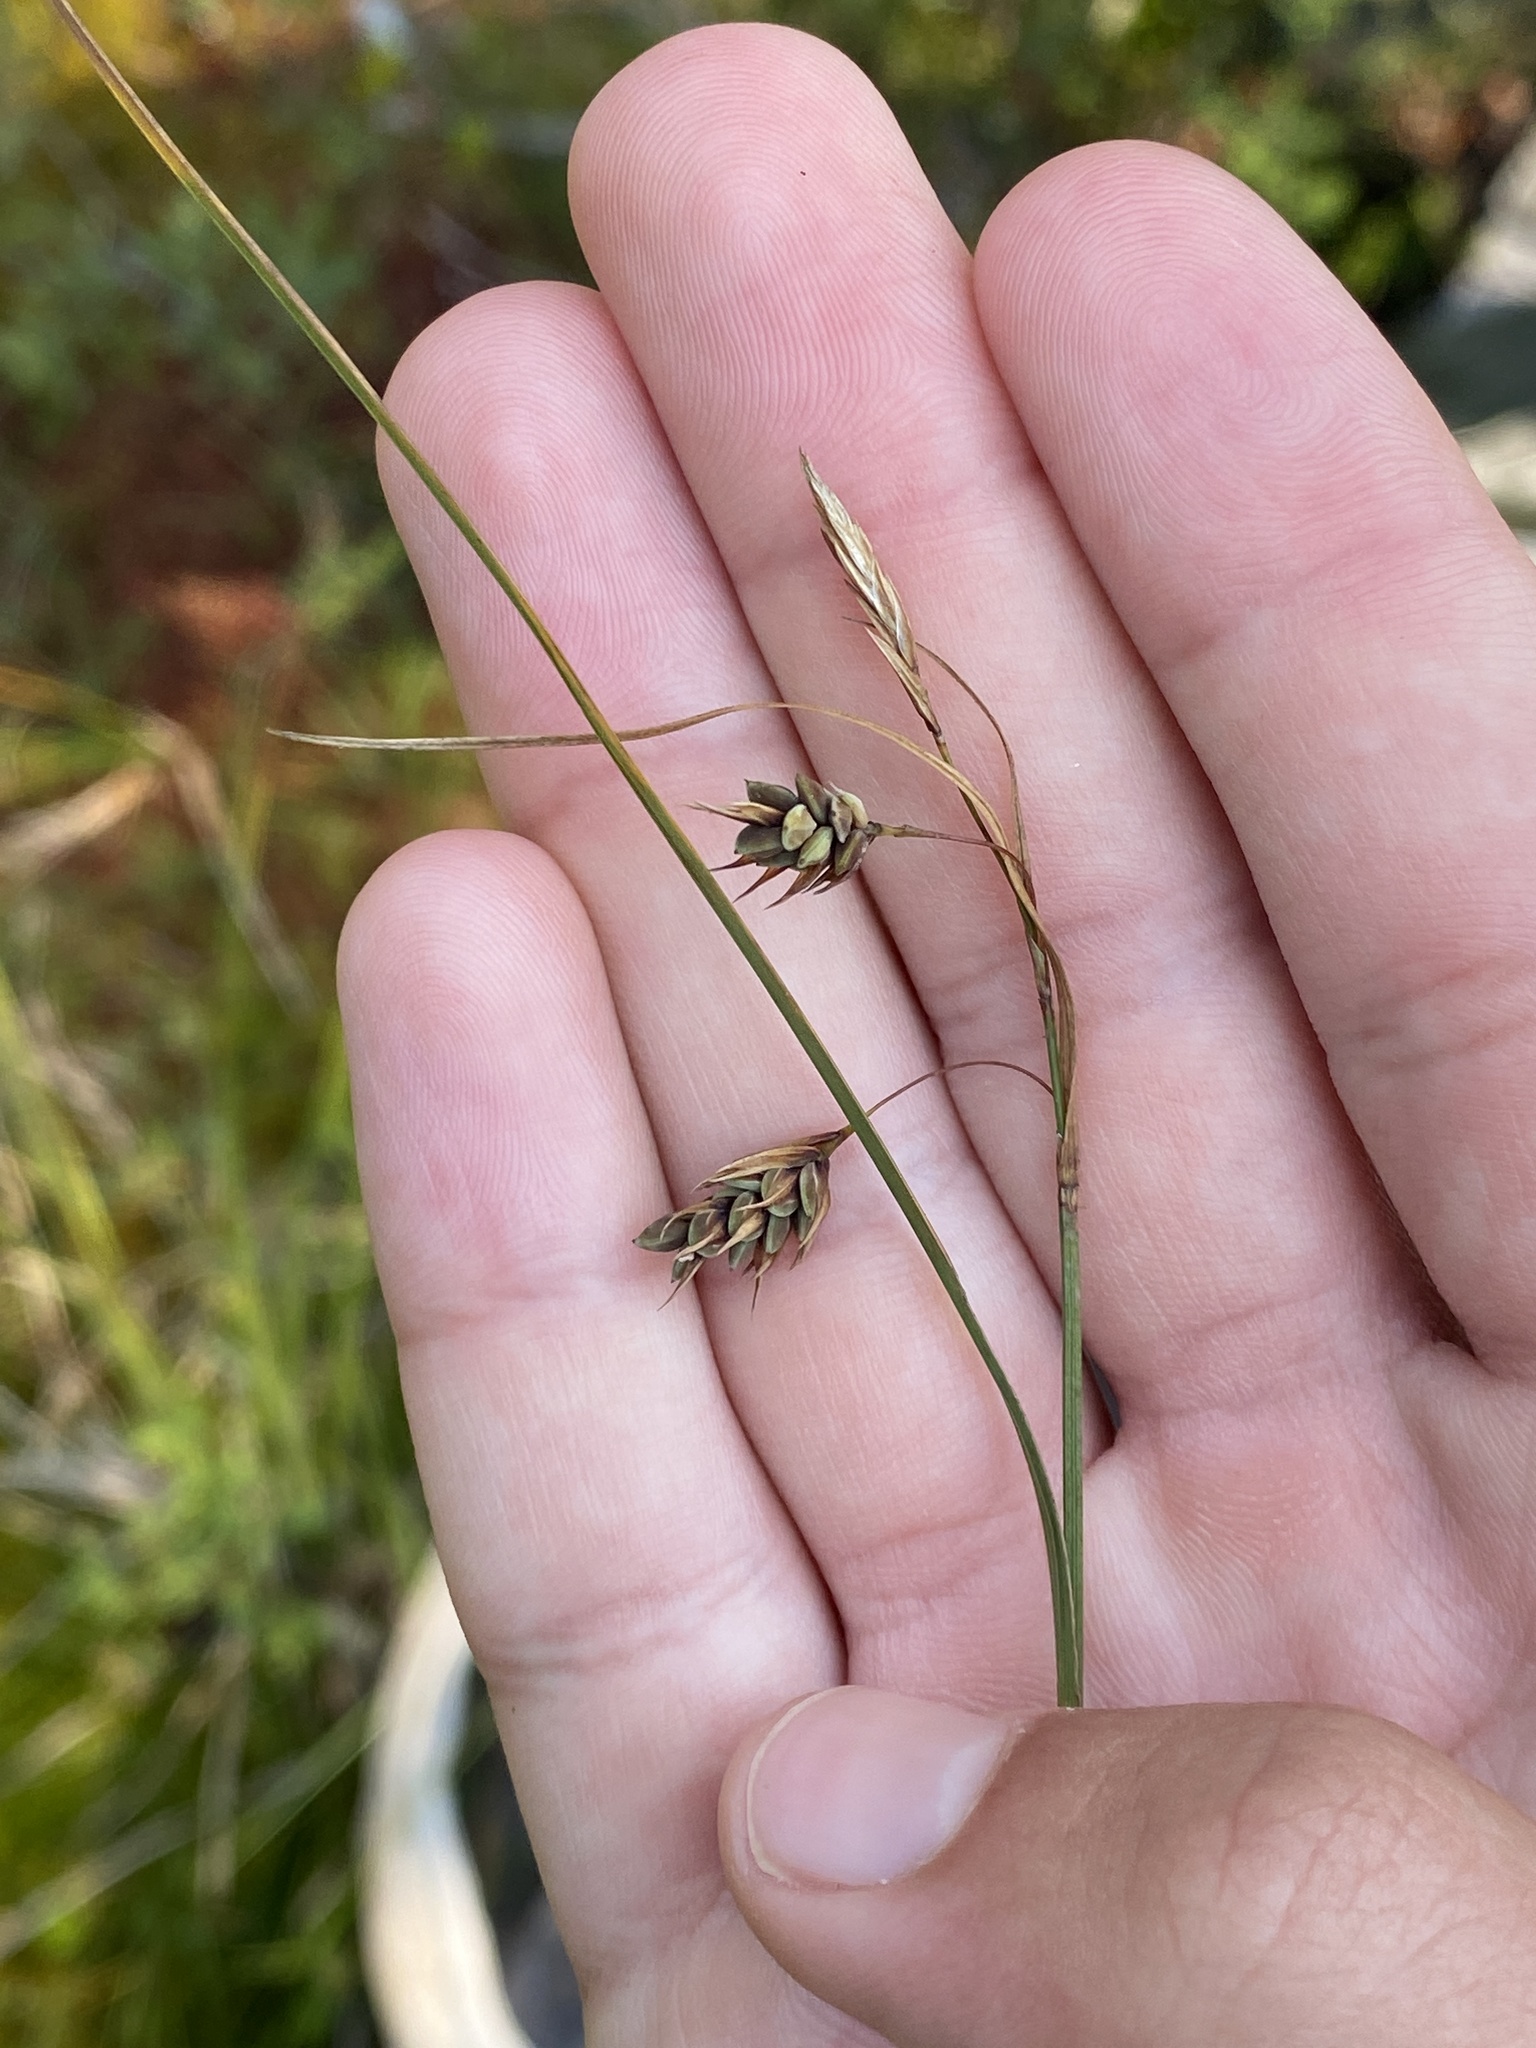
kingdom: Plantae
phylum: Tracheophyta
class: Liliopsida
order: Poales
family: Cyperaceae
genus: Carex
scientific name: Carex magellanica
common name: Bog sedge
